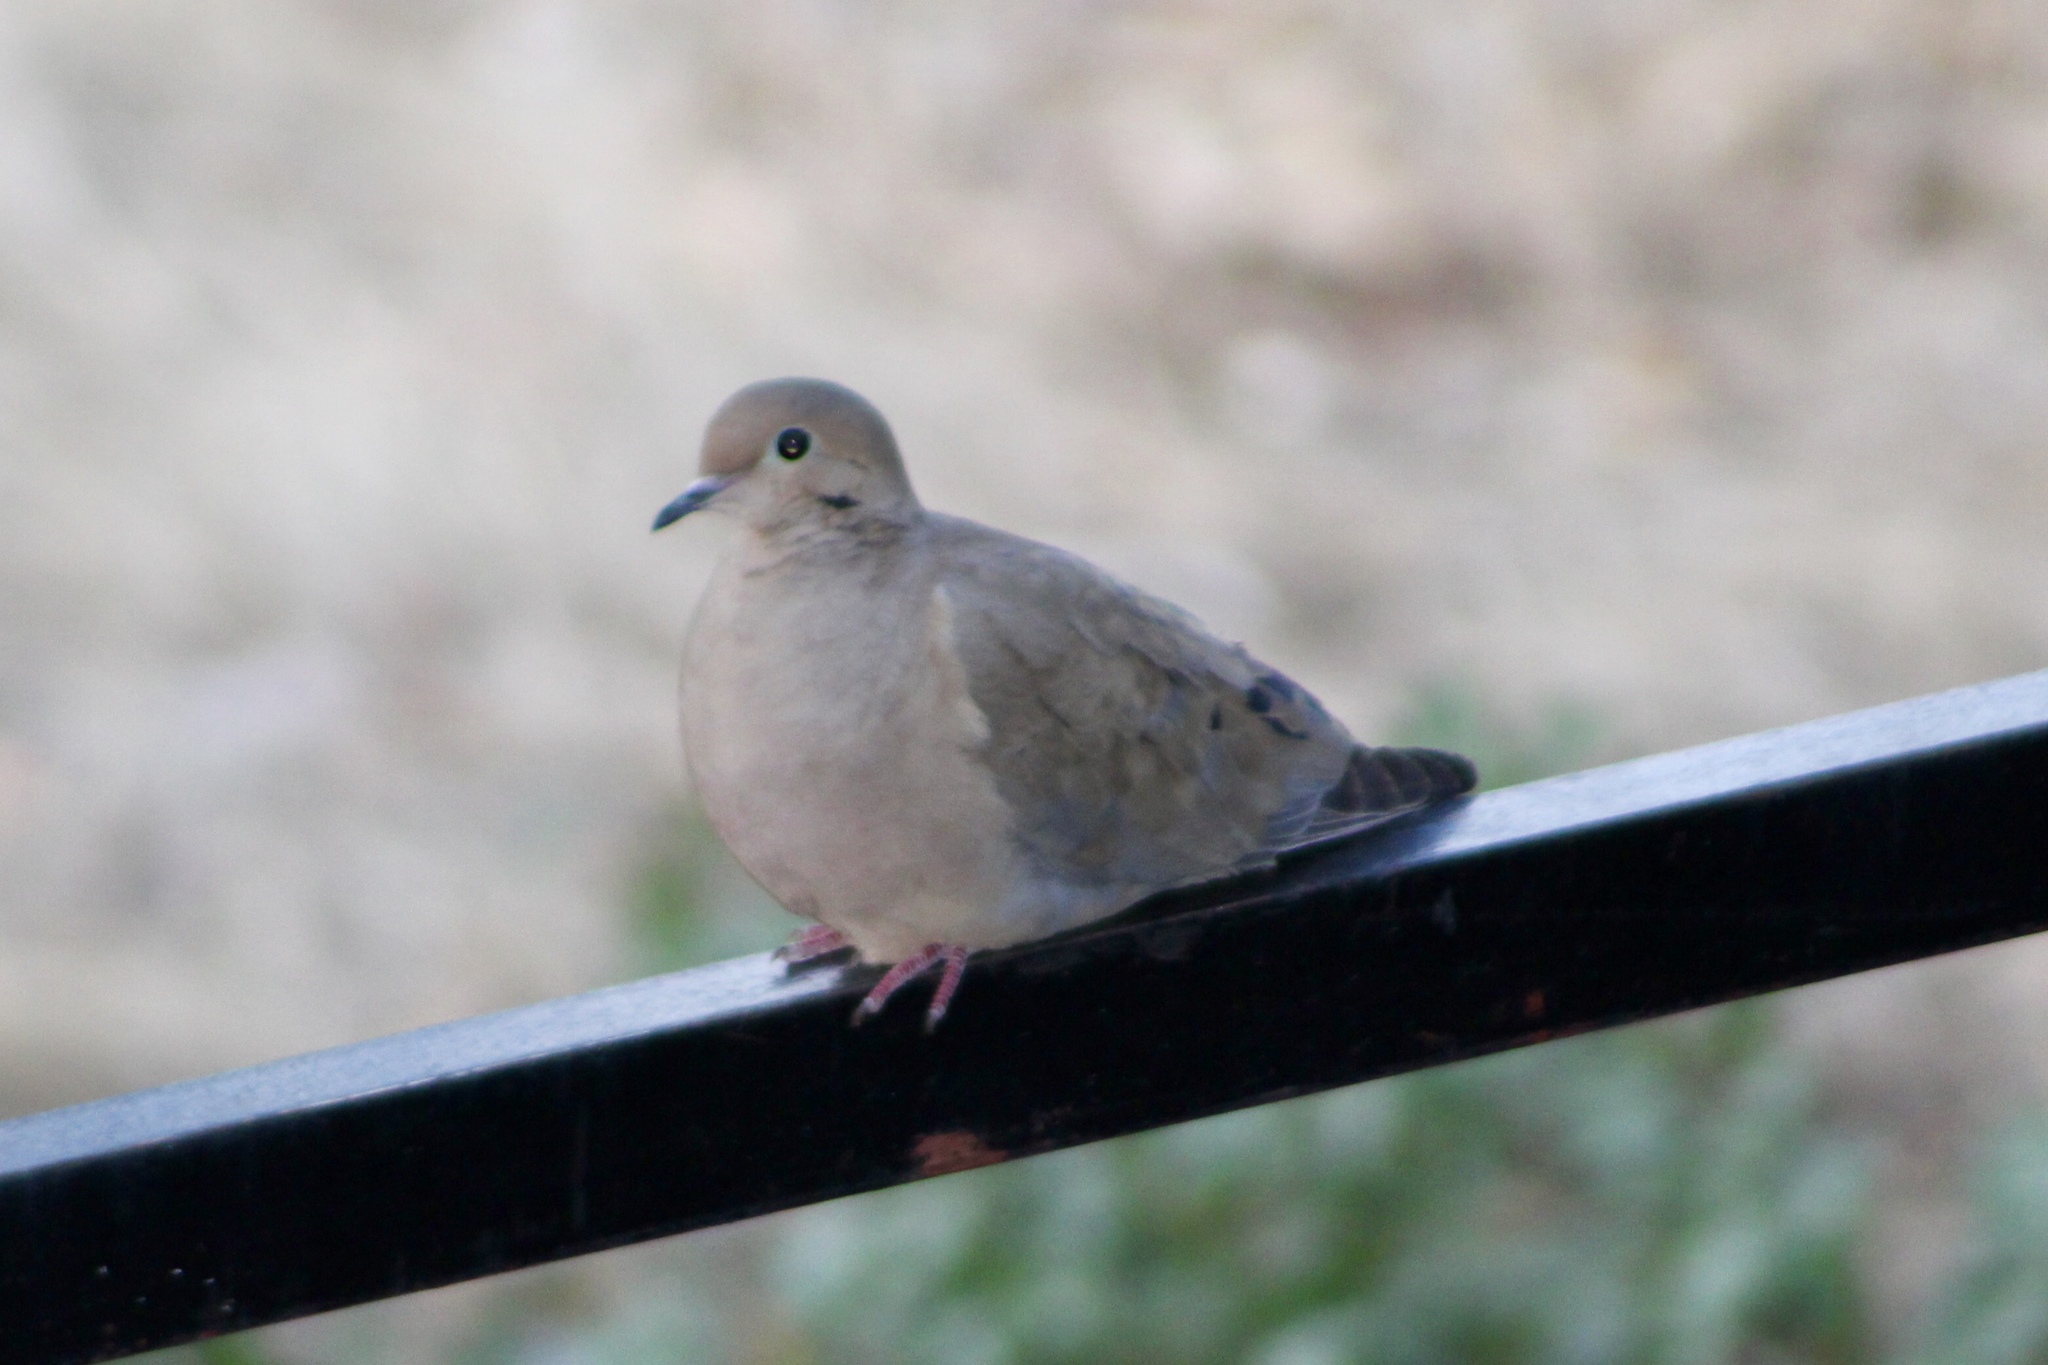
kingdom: Animalia
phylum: Chordata
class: Aves
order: Columbiformes
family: Columbidae
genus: Zenaida
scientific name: Zenaida macroura
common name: Mourning dove
